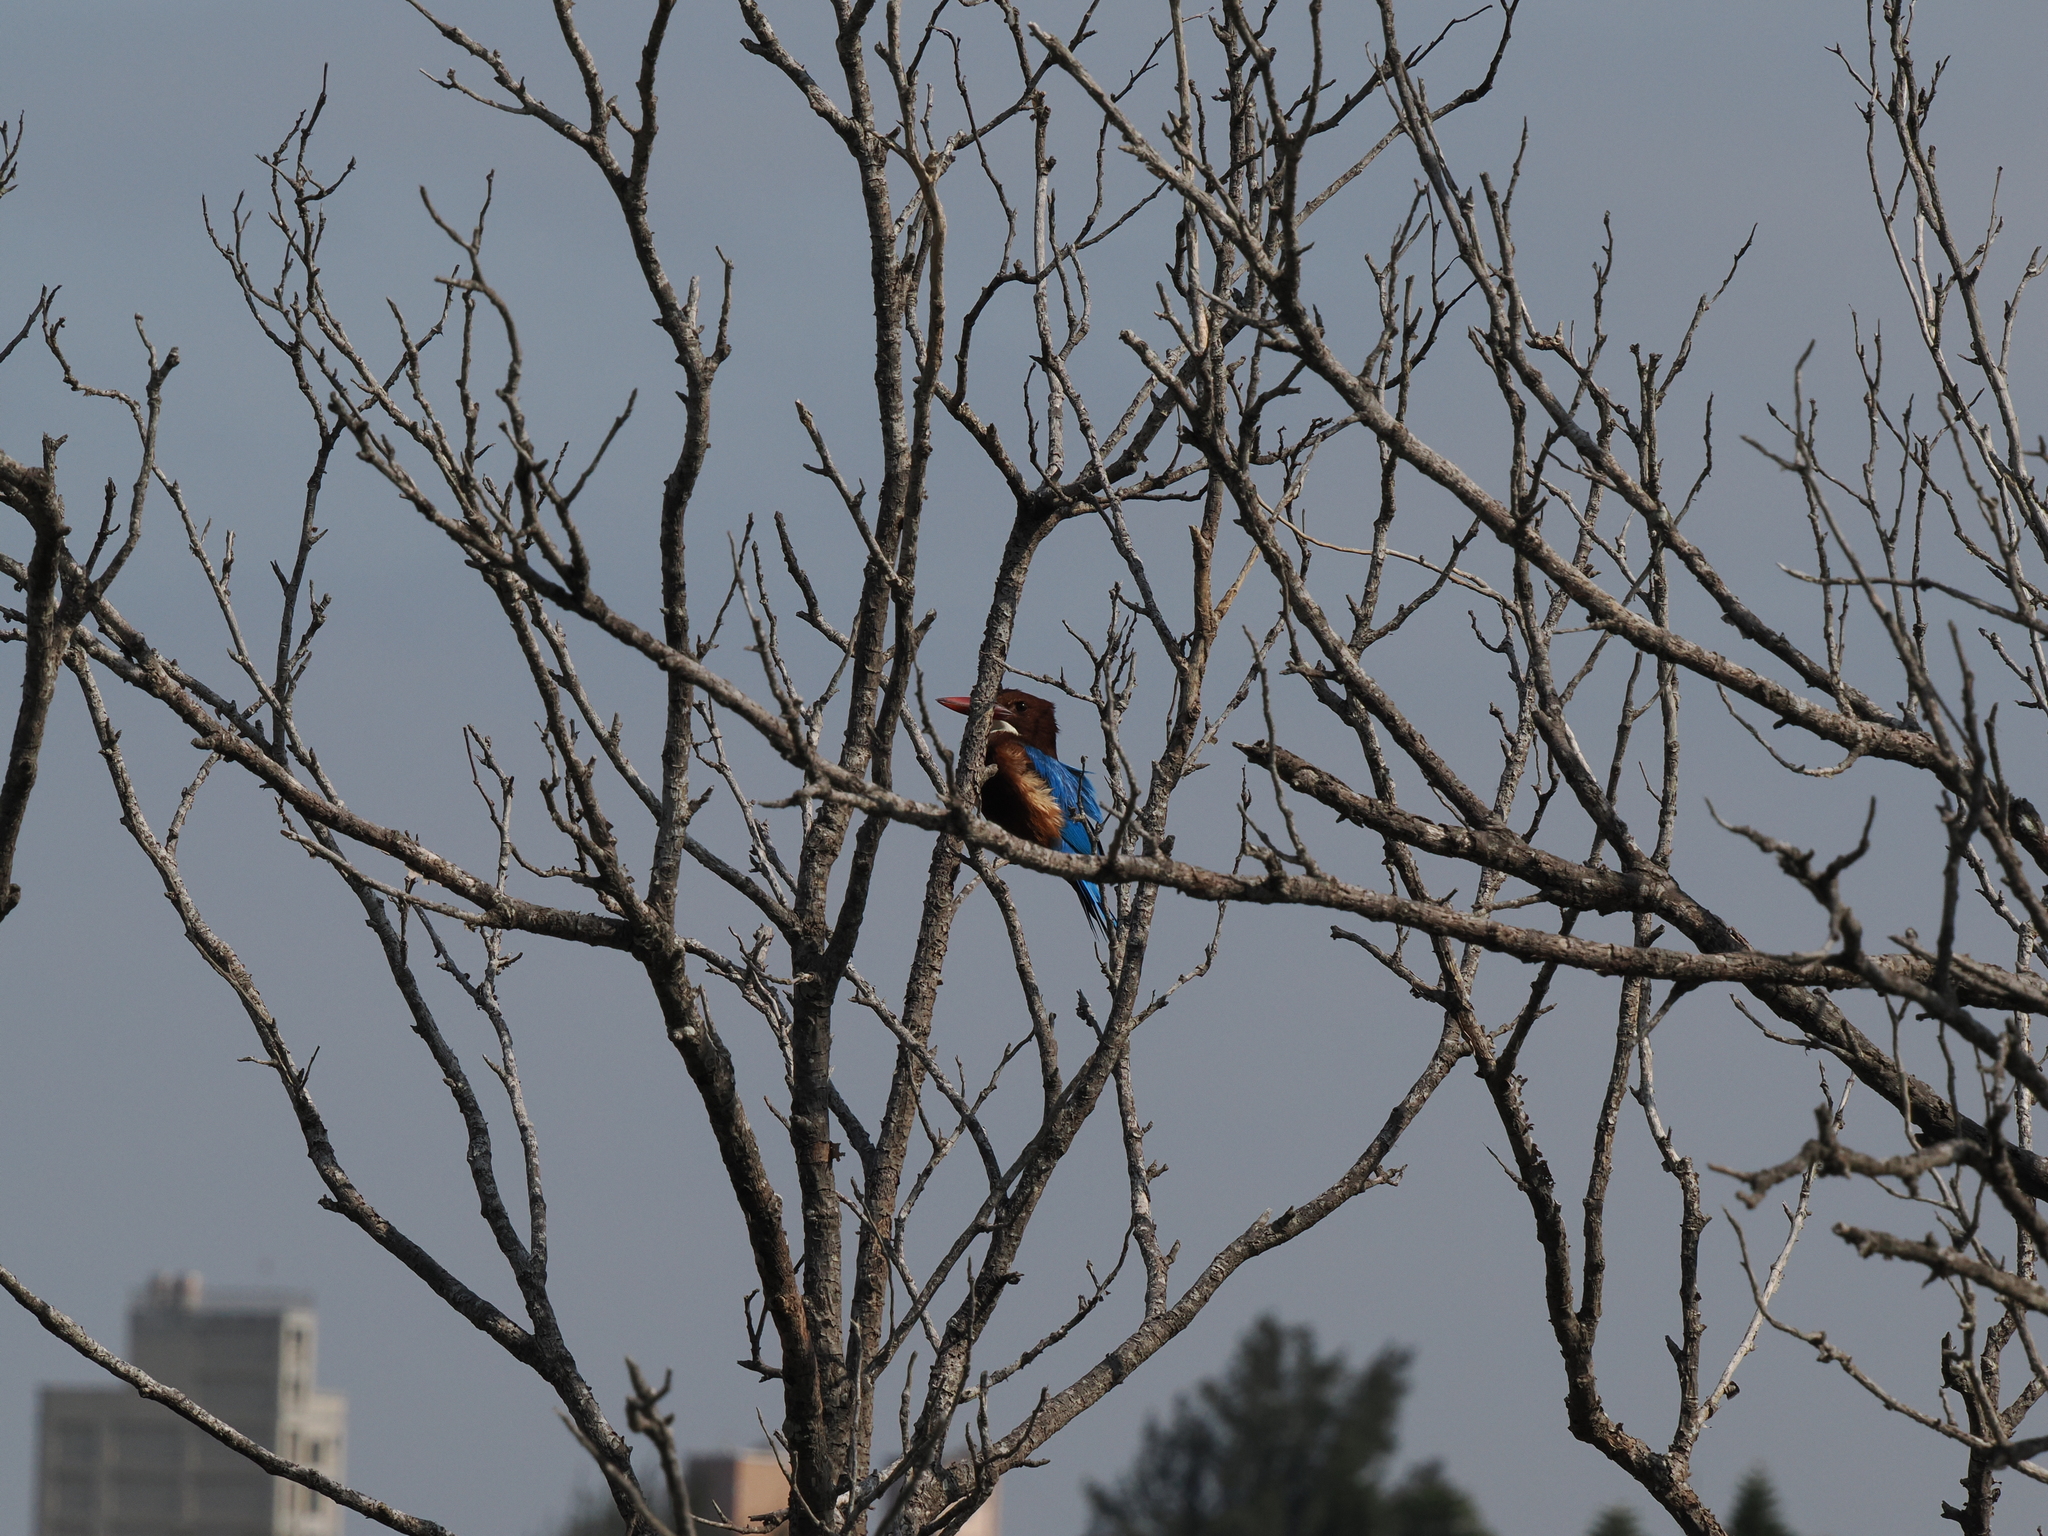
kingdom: Animalia
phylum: Chordata
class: Aves
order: Coraciiformes
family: Alcedinidae
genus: Halcyon
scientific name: Halcyon smyrnensis
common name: White-throated kingfisher
